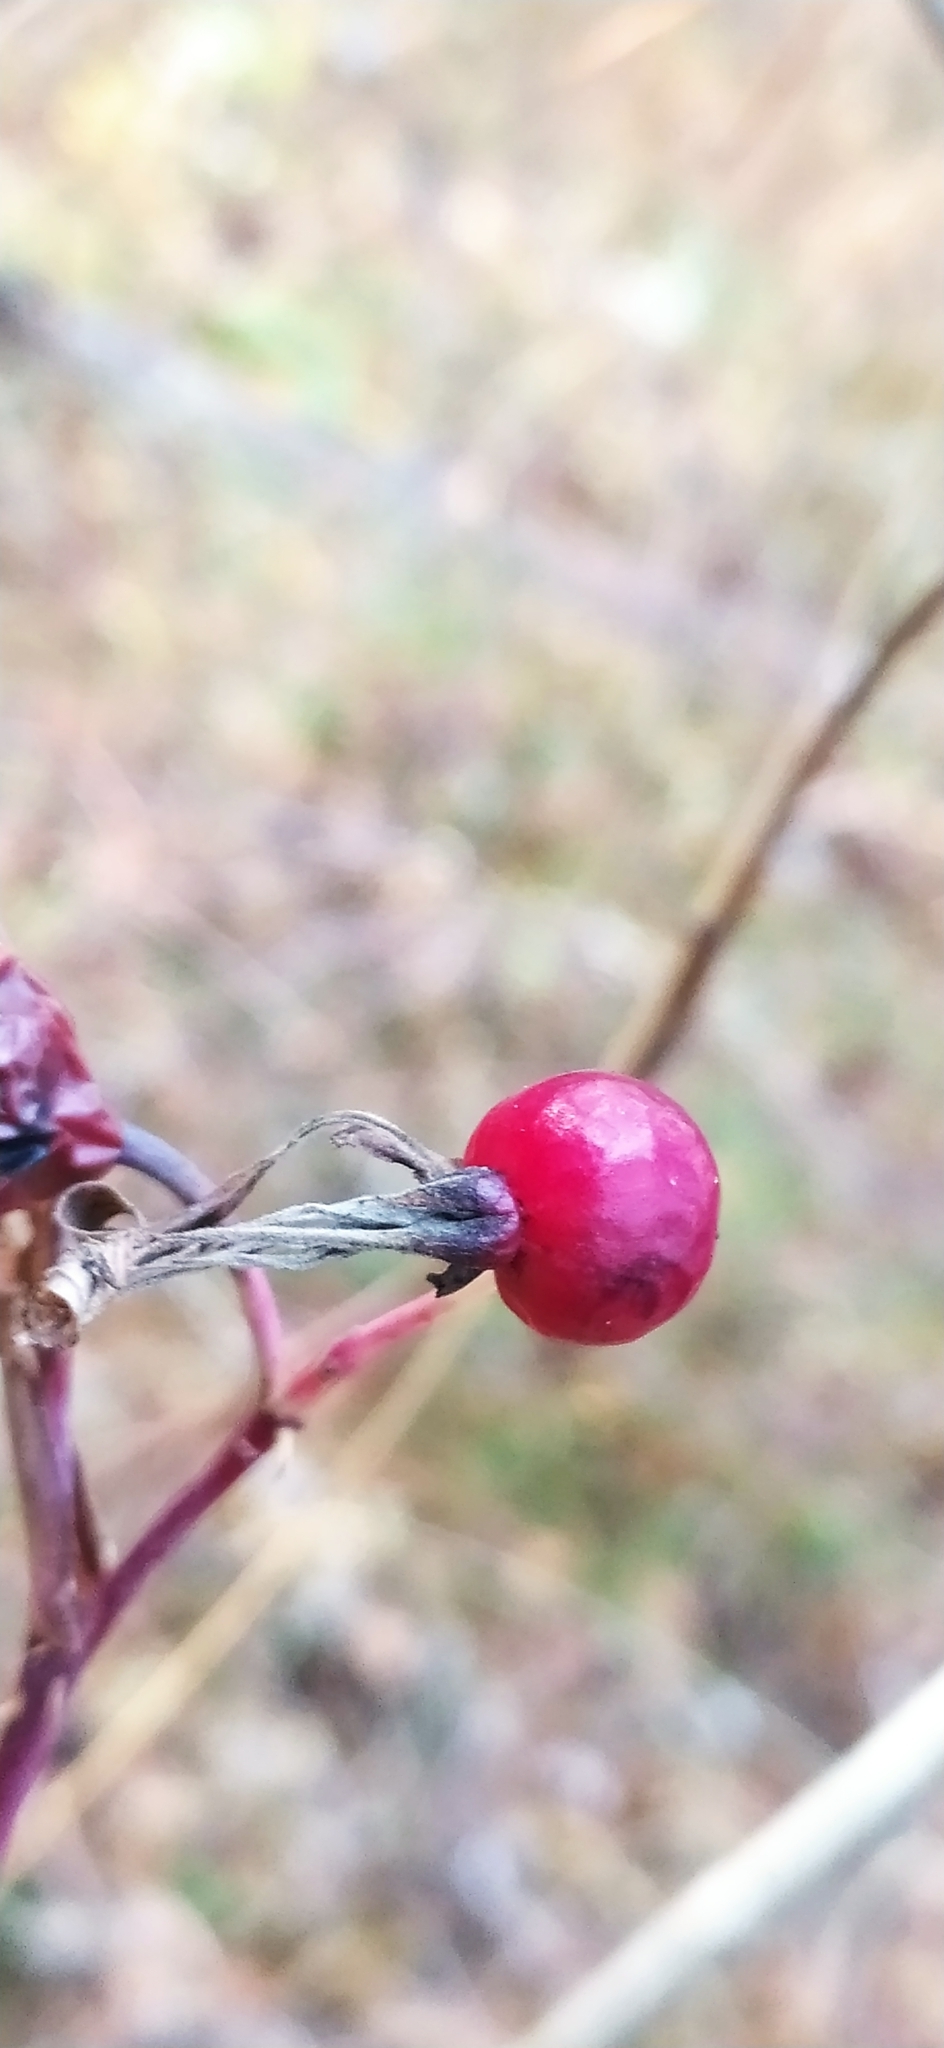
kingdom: Plantae
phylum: Tracheophyta
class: Magnoliopsida
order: Rosales
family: Rosaceae
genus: Rosa
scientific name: Rosa majalis
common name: Cinnamon rose
